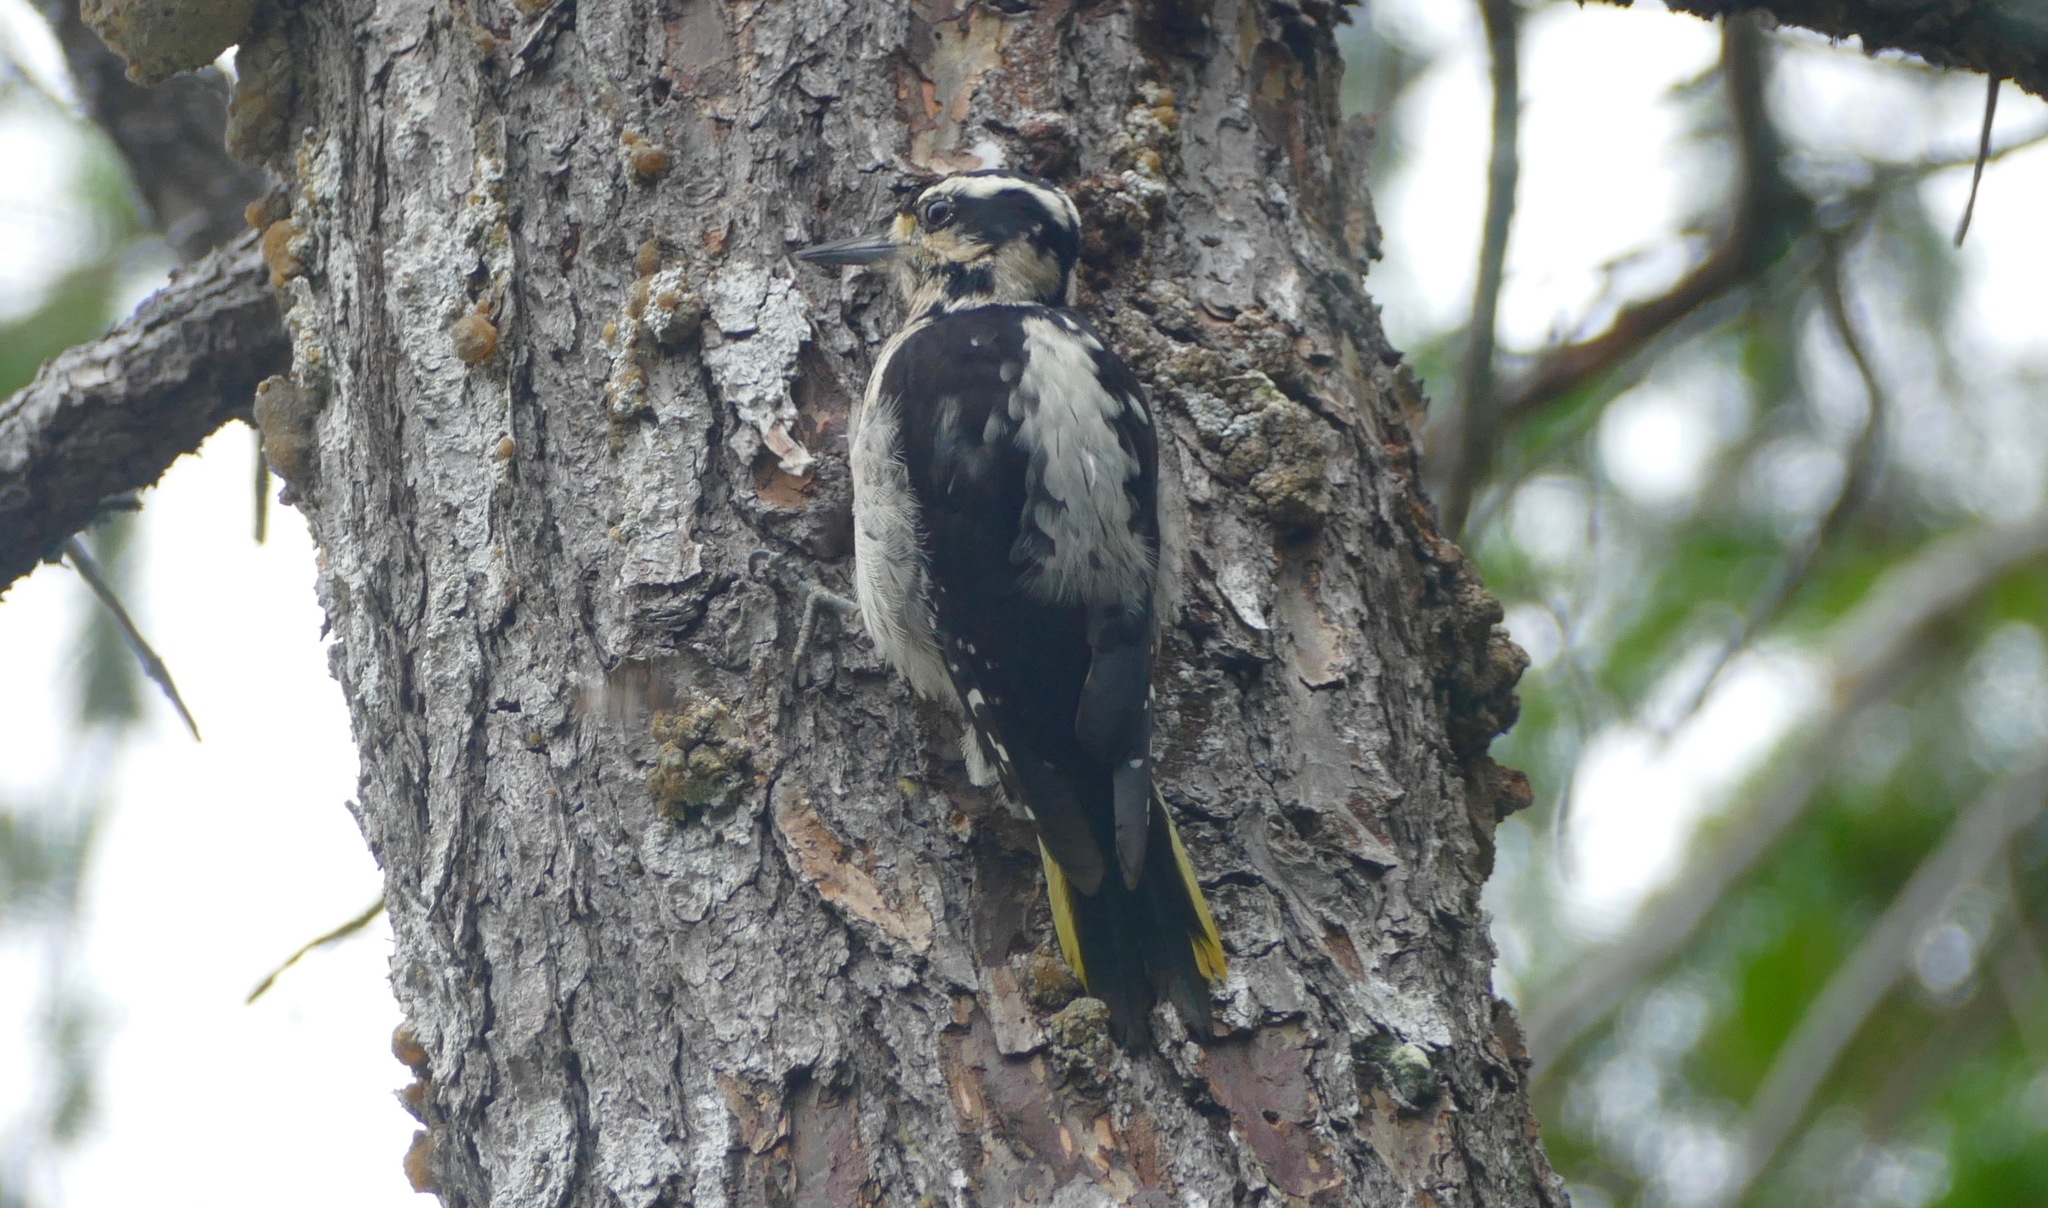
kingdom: Animalia
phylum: Chordata
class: Aves
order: Piciformes
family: Picidae
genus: Leuconotopicus
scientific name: Leuconotopicus villosus
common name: Hairy woodpecker
